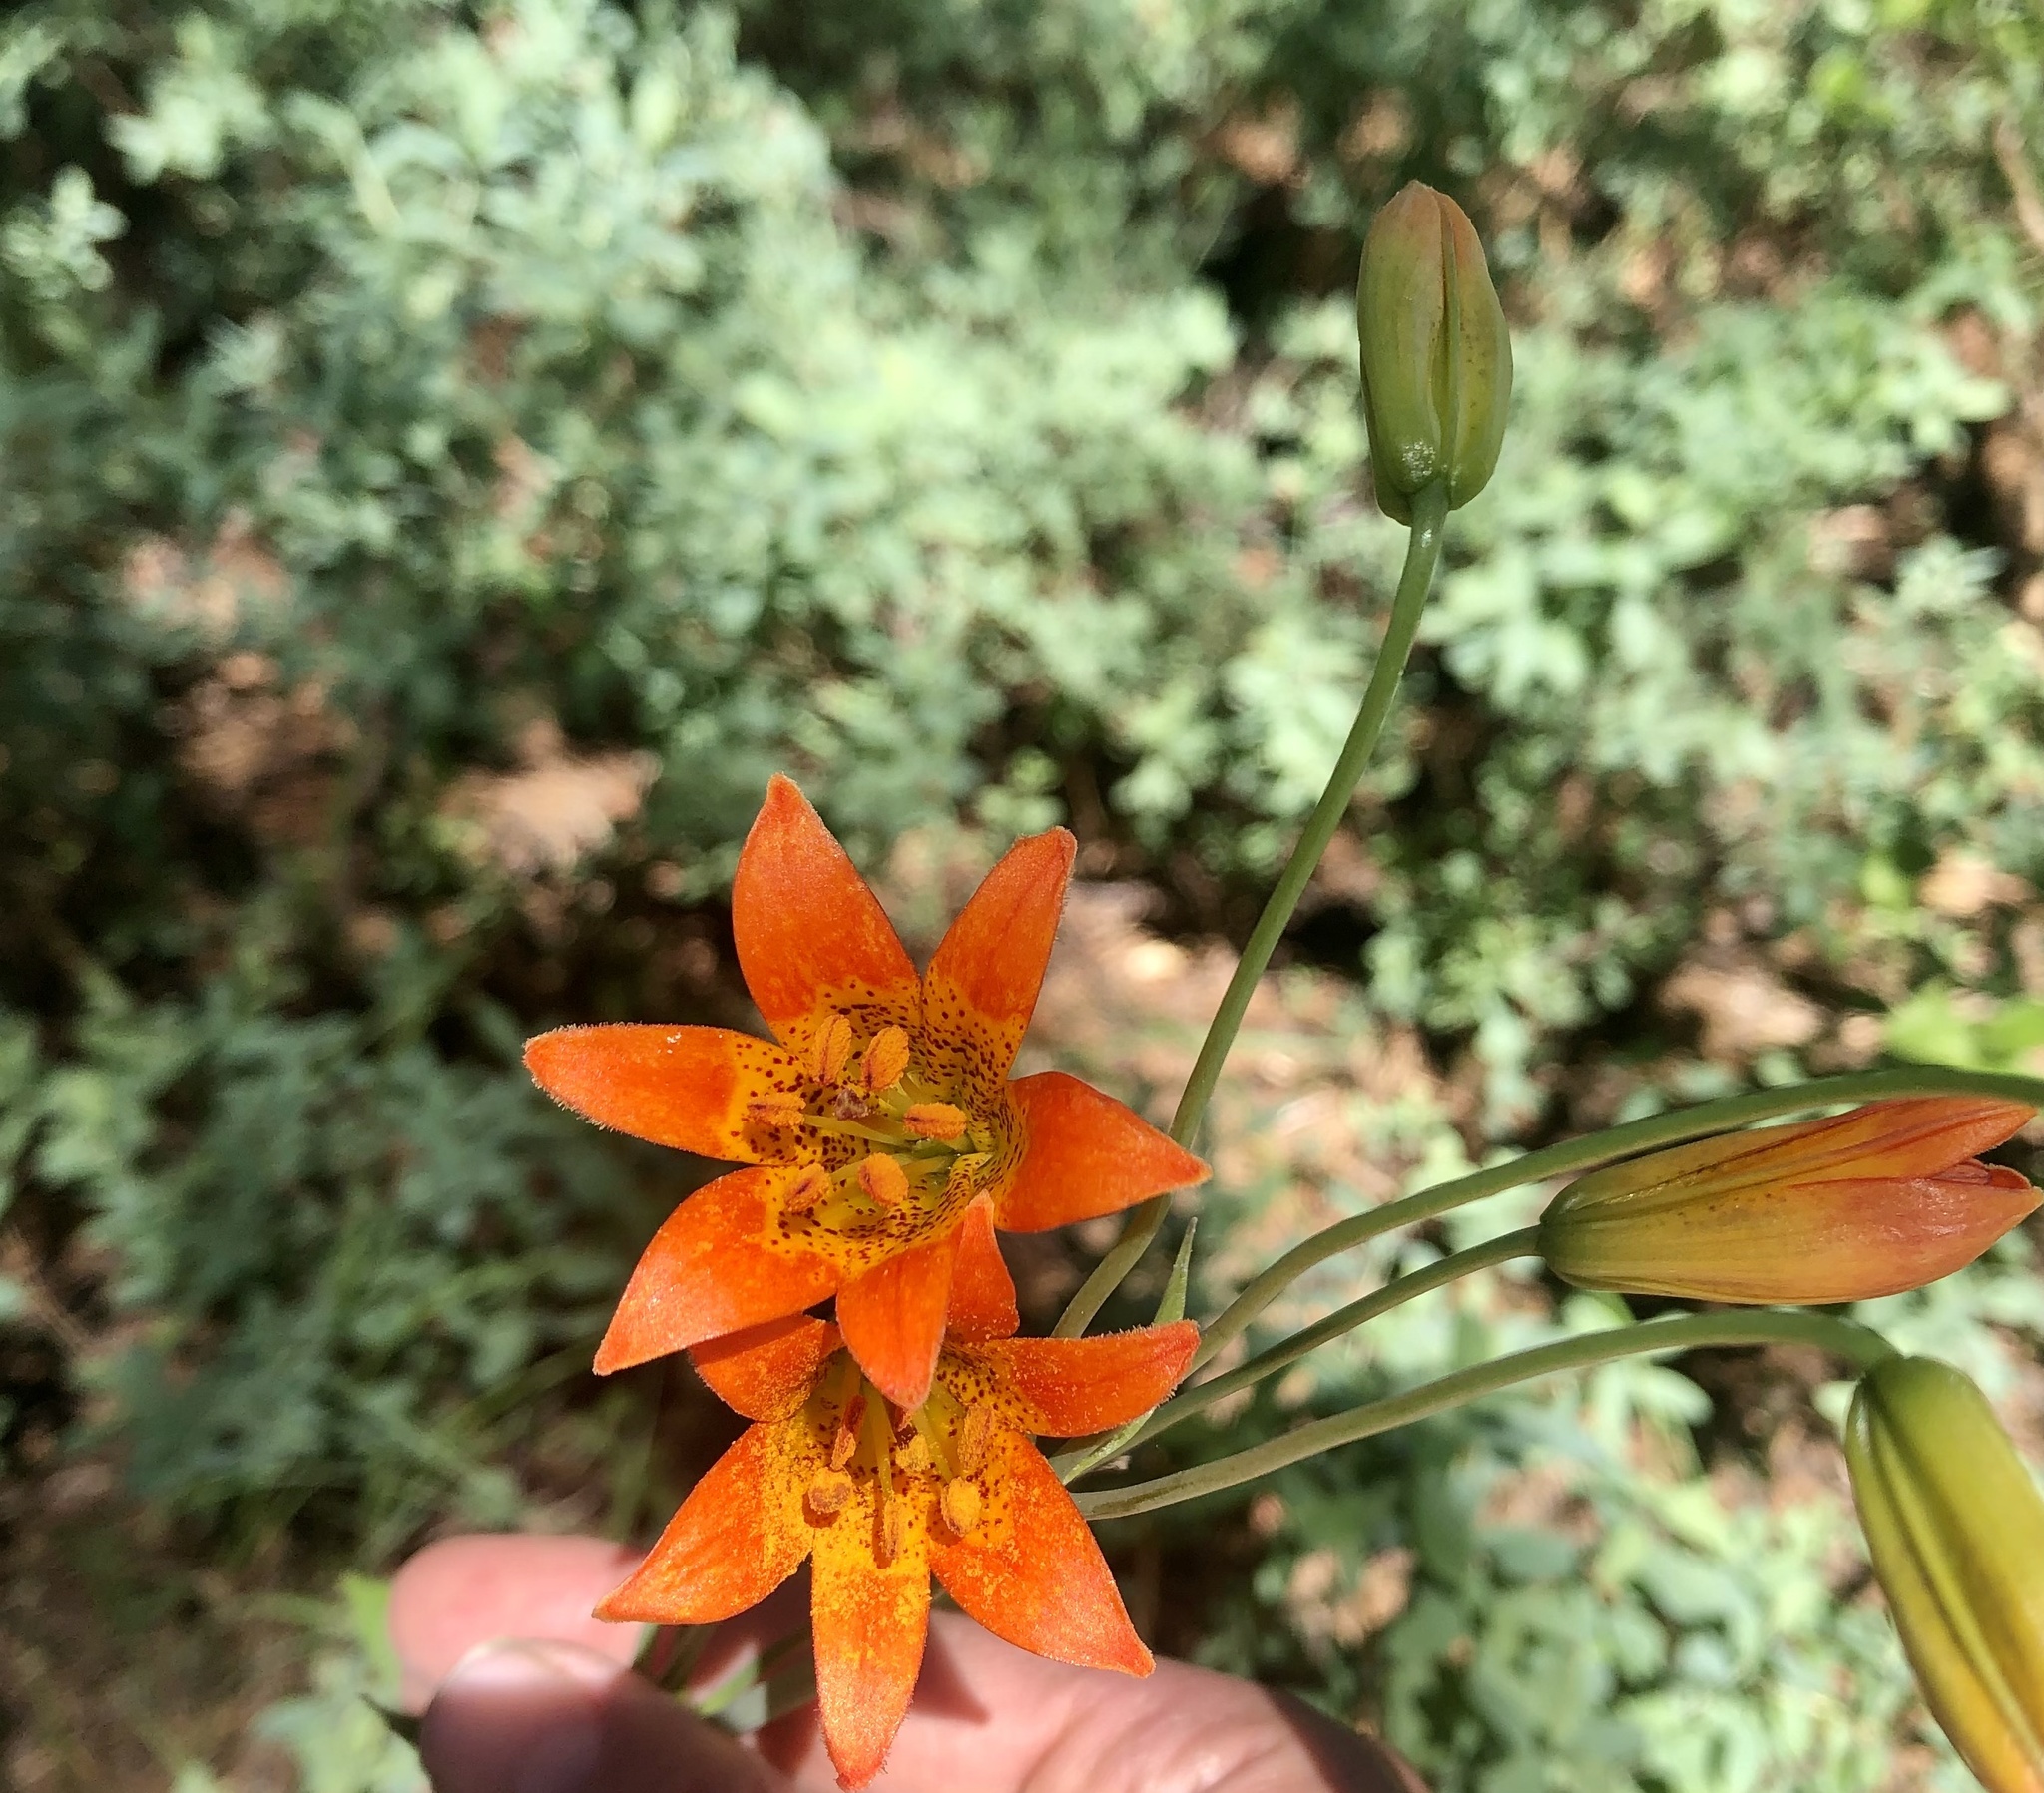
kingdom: Plantae
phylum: Tracheophyta
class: Liliopsida
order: Liliales
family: Liliaceae
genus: Lilium
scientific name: Lilium parvum
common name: Alpine lily
